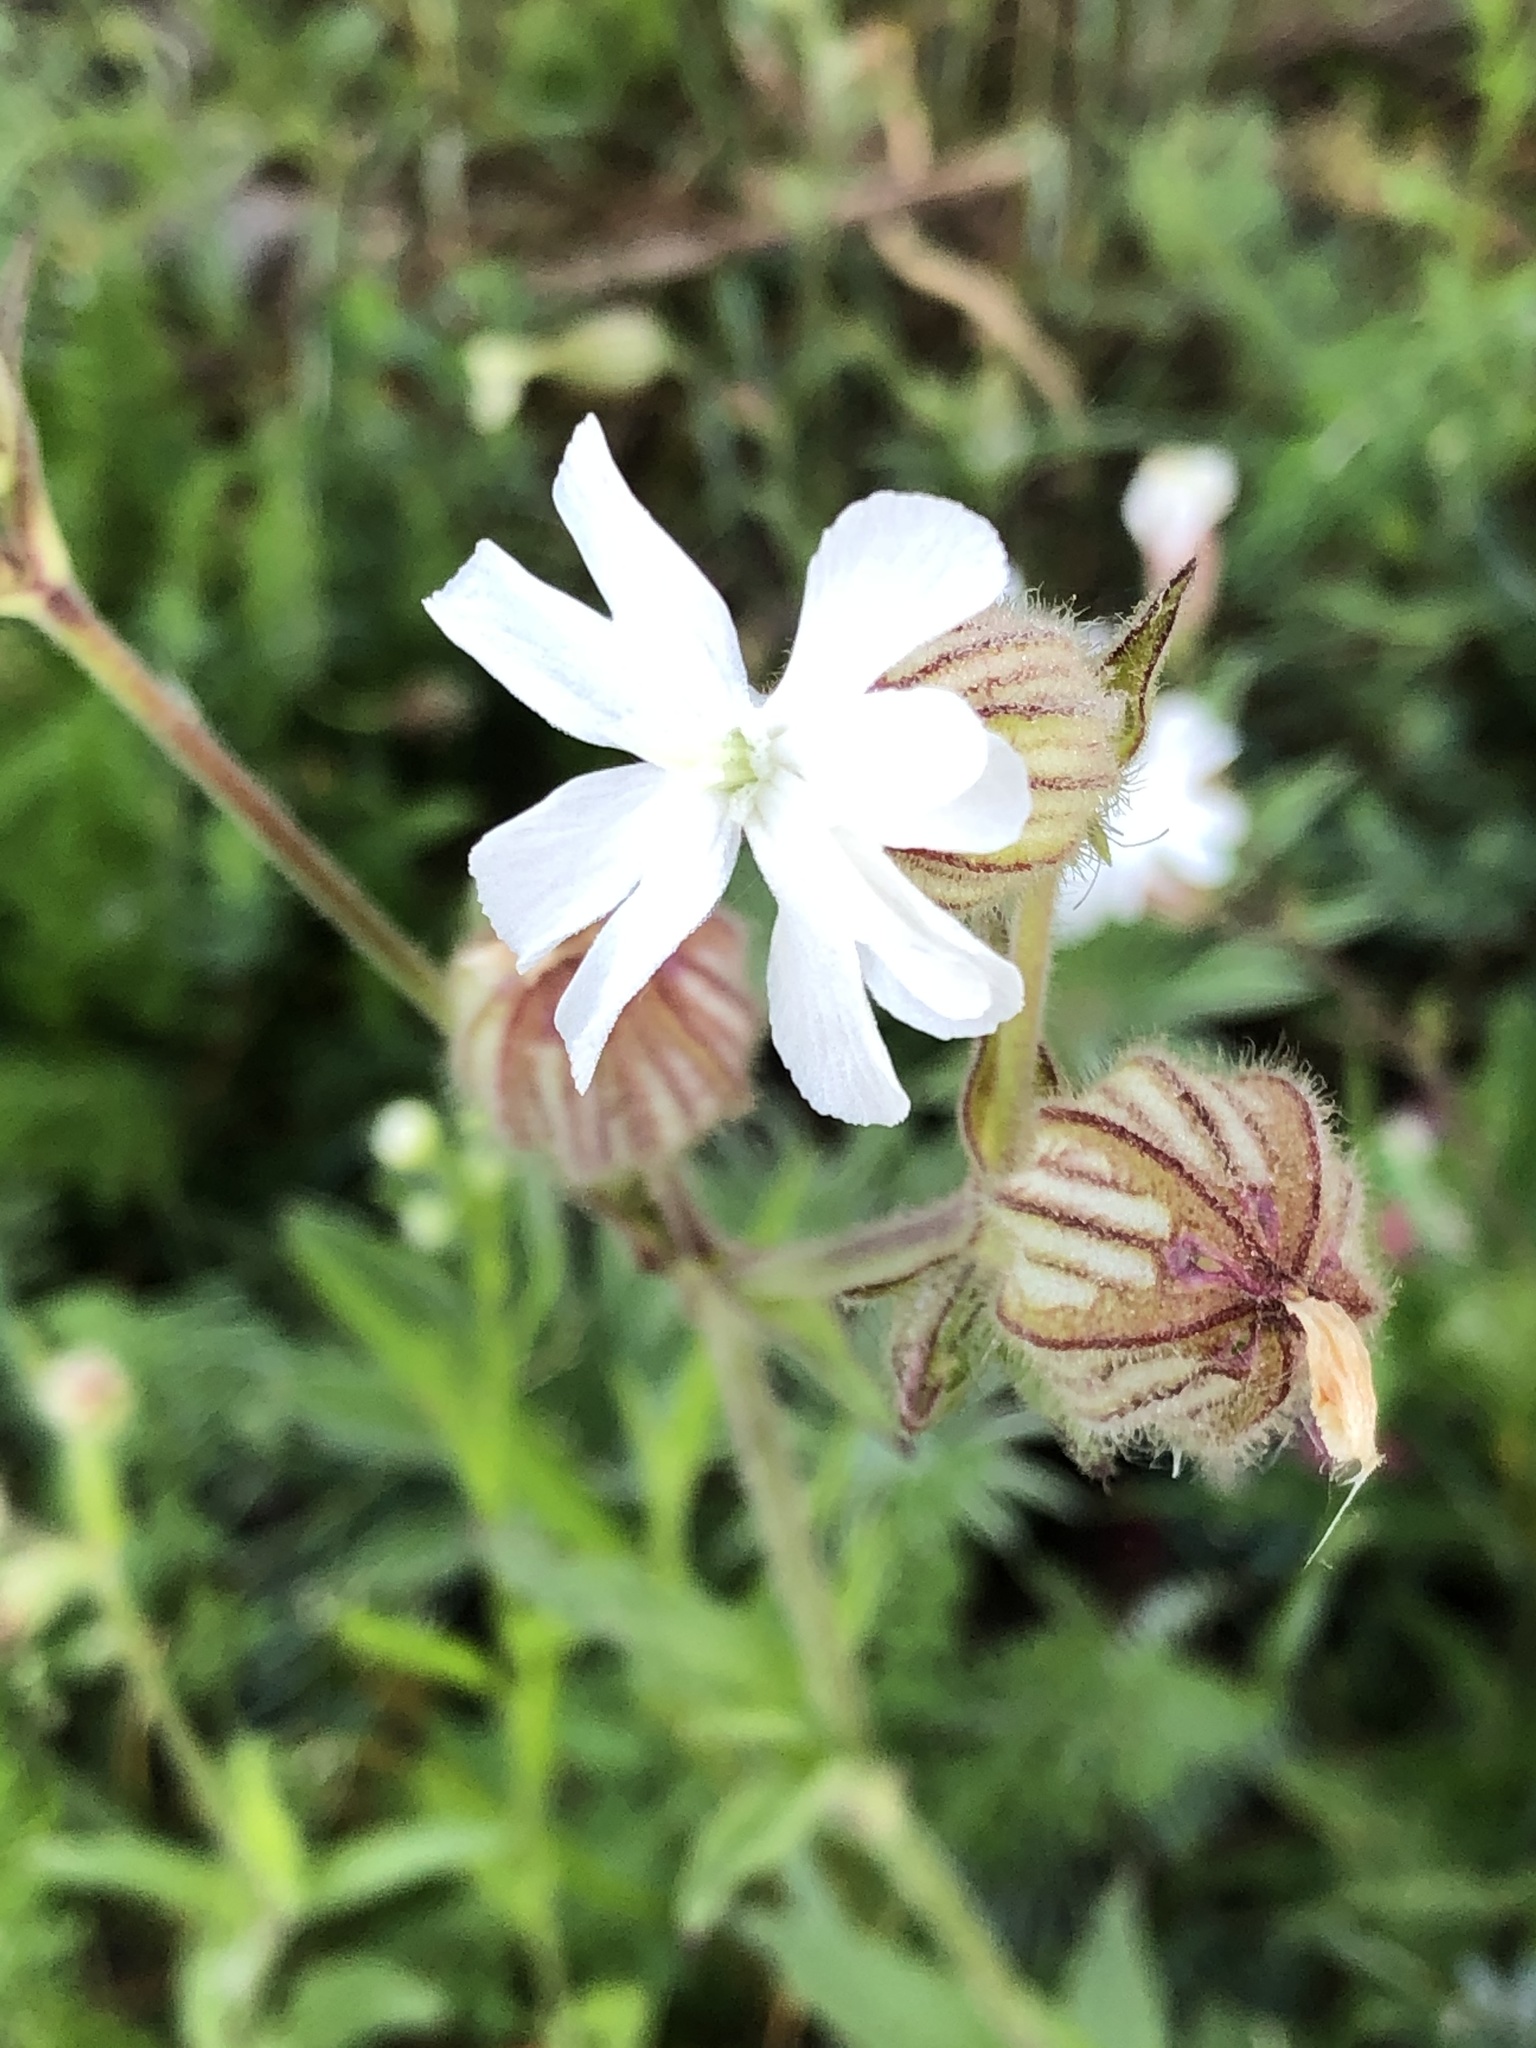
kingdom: Plantae
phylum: Tracheophyta
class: Magnoliopsida
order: Caryophyllales
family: Caryophyllaceae
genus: Silene
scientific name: Silene latifolia
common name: White campion
